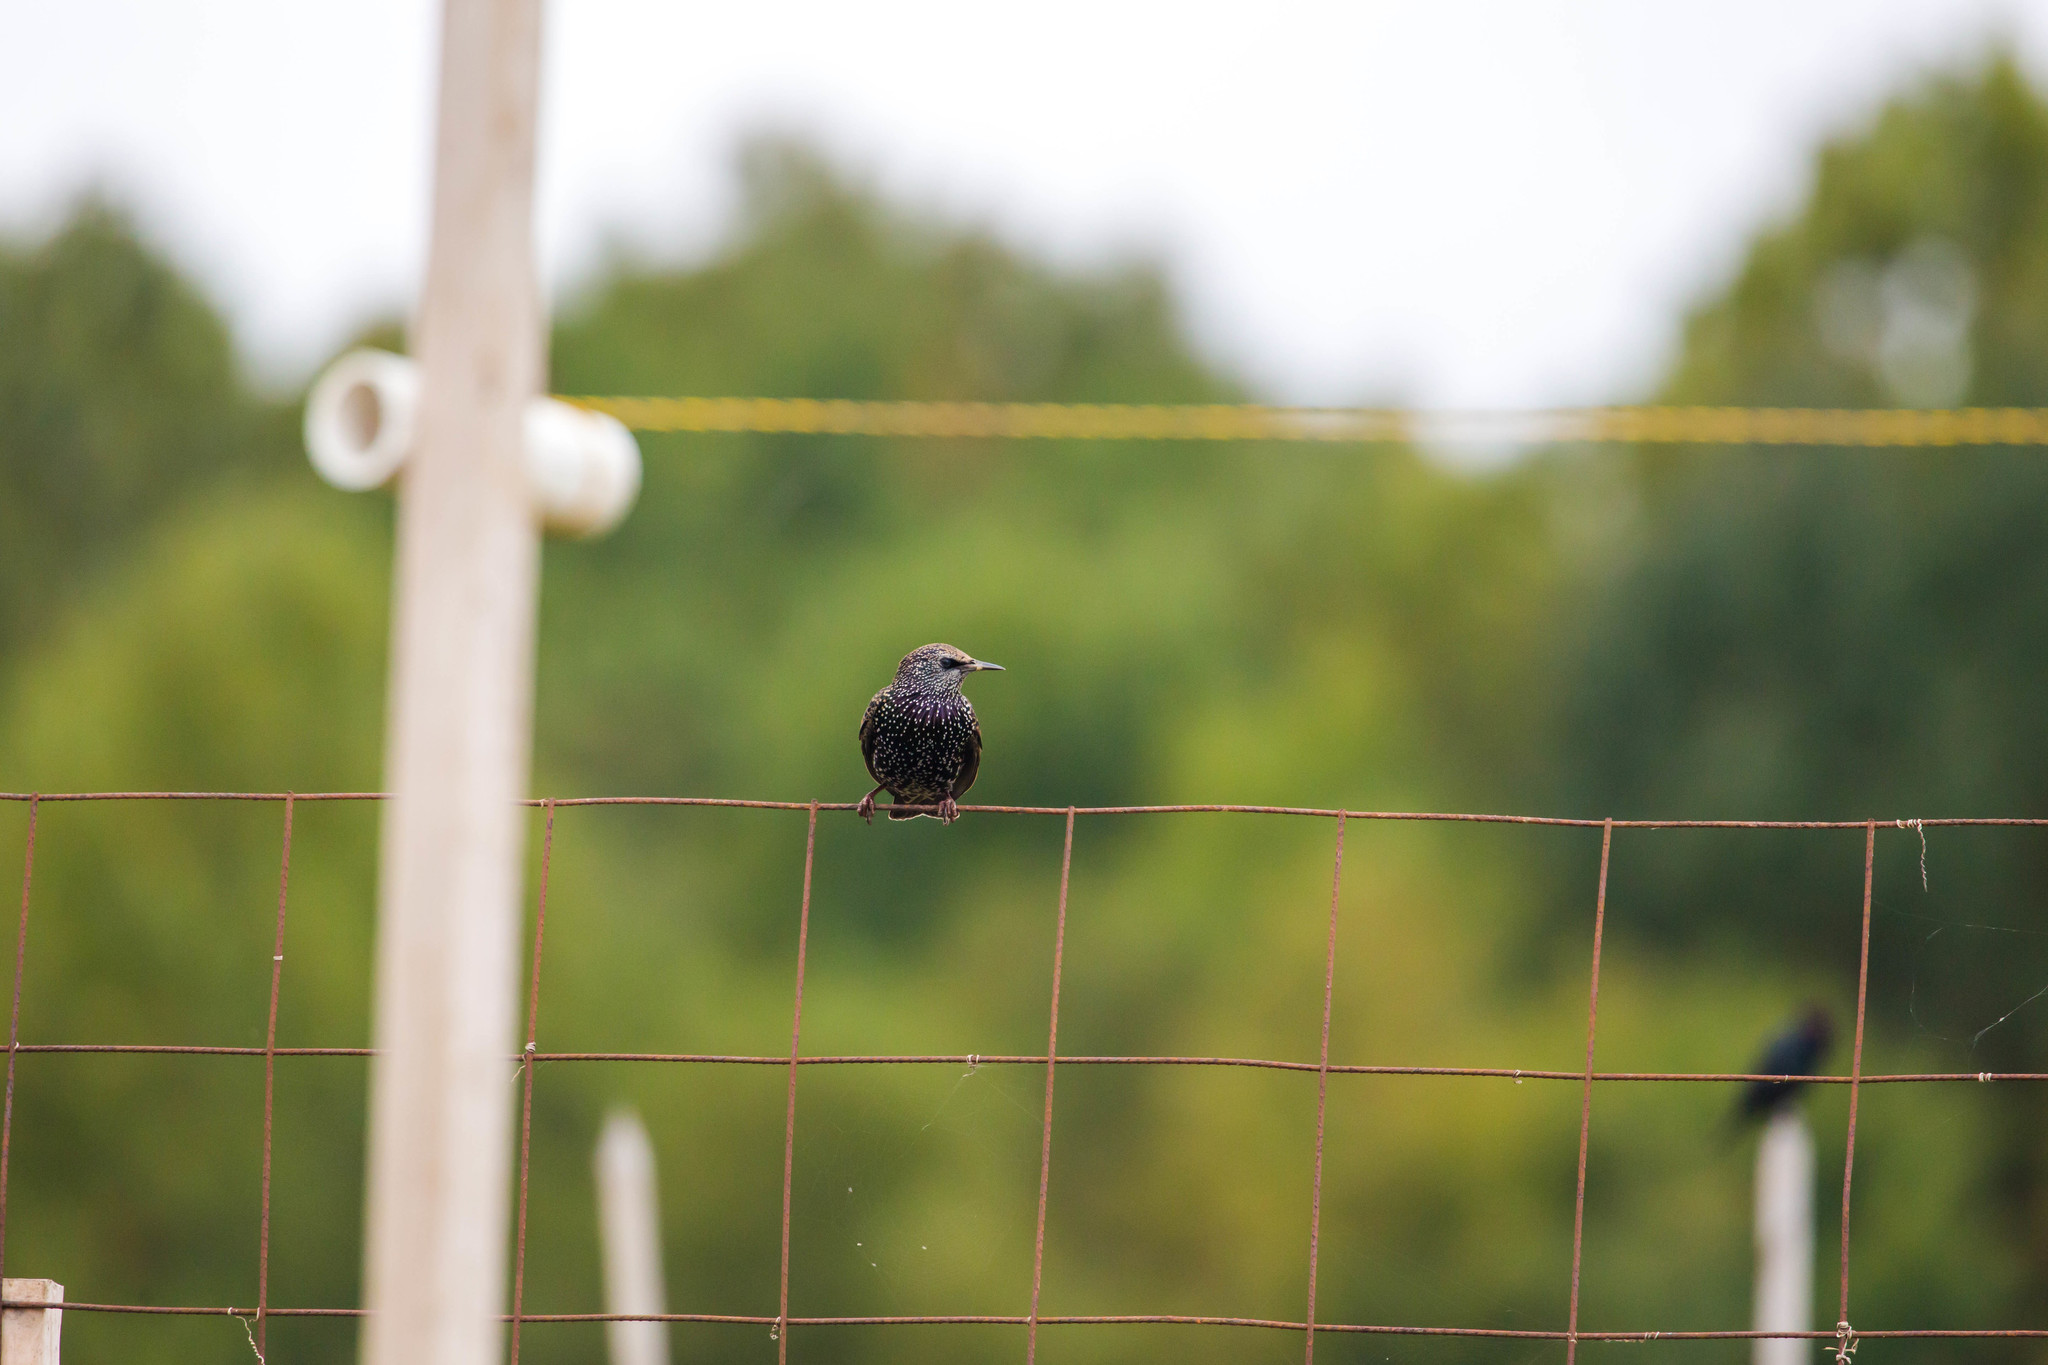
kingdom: Animalia
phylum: Chordata
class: Aves
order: Passeriformes
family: Sturnidae
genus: Sturnus
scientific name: Sturnus vulgaris
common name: Common starling
